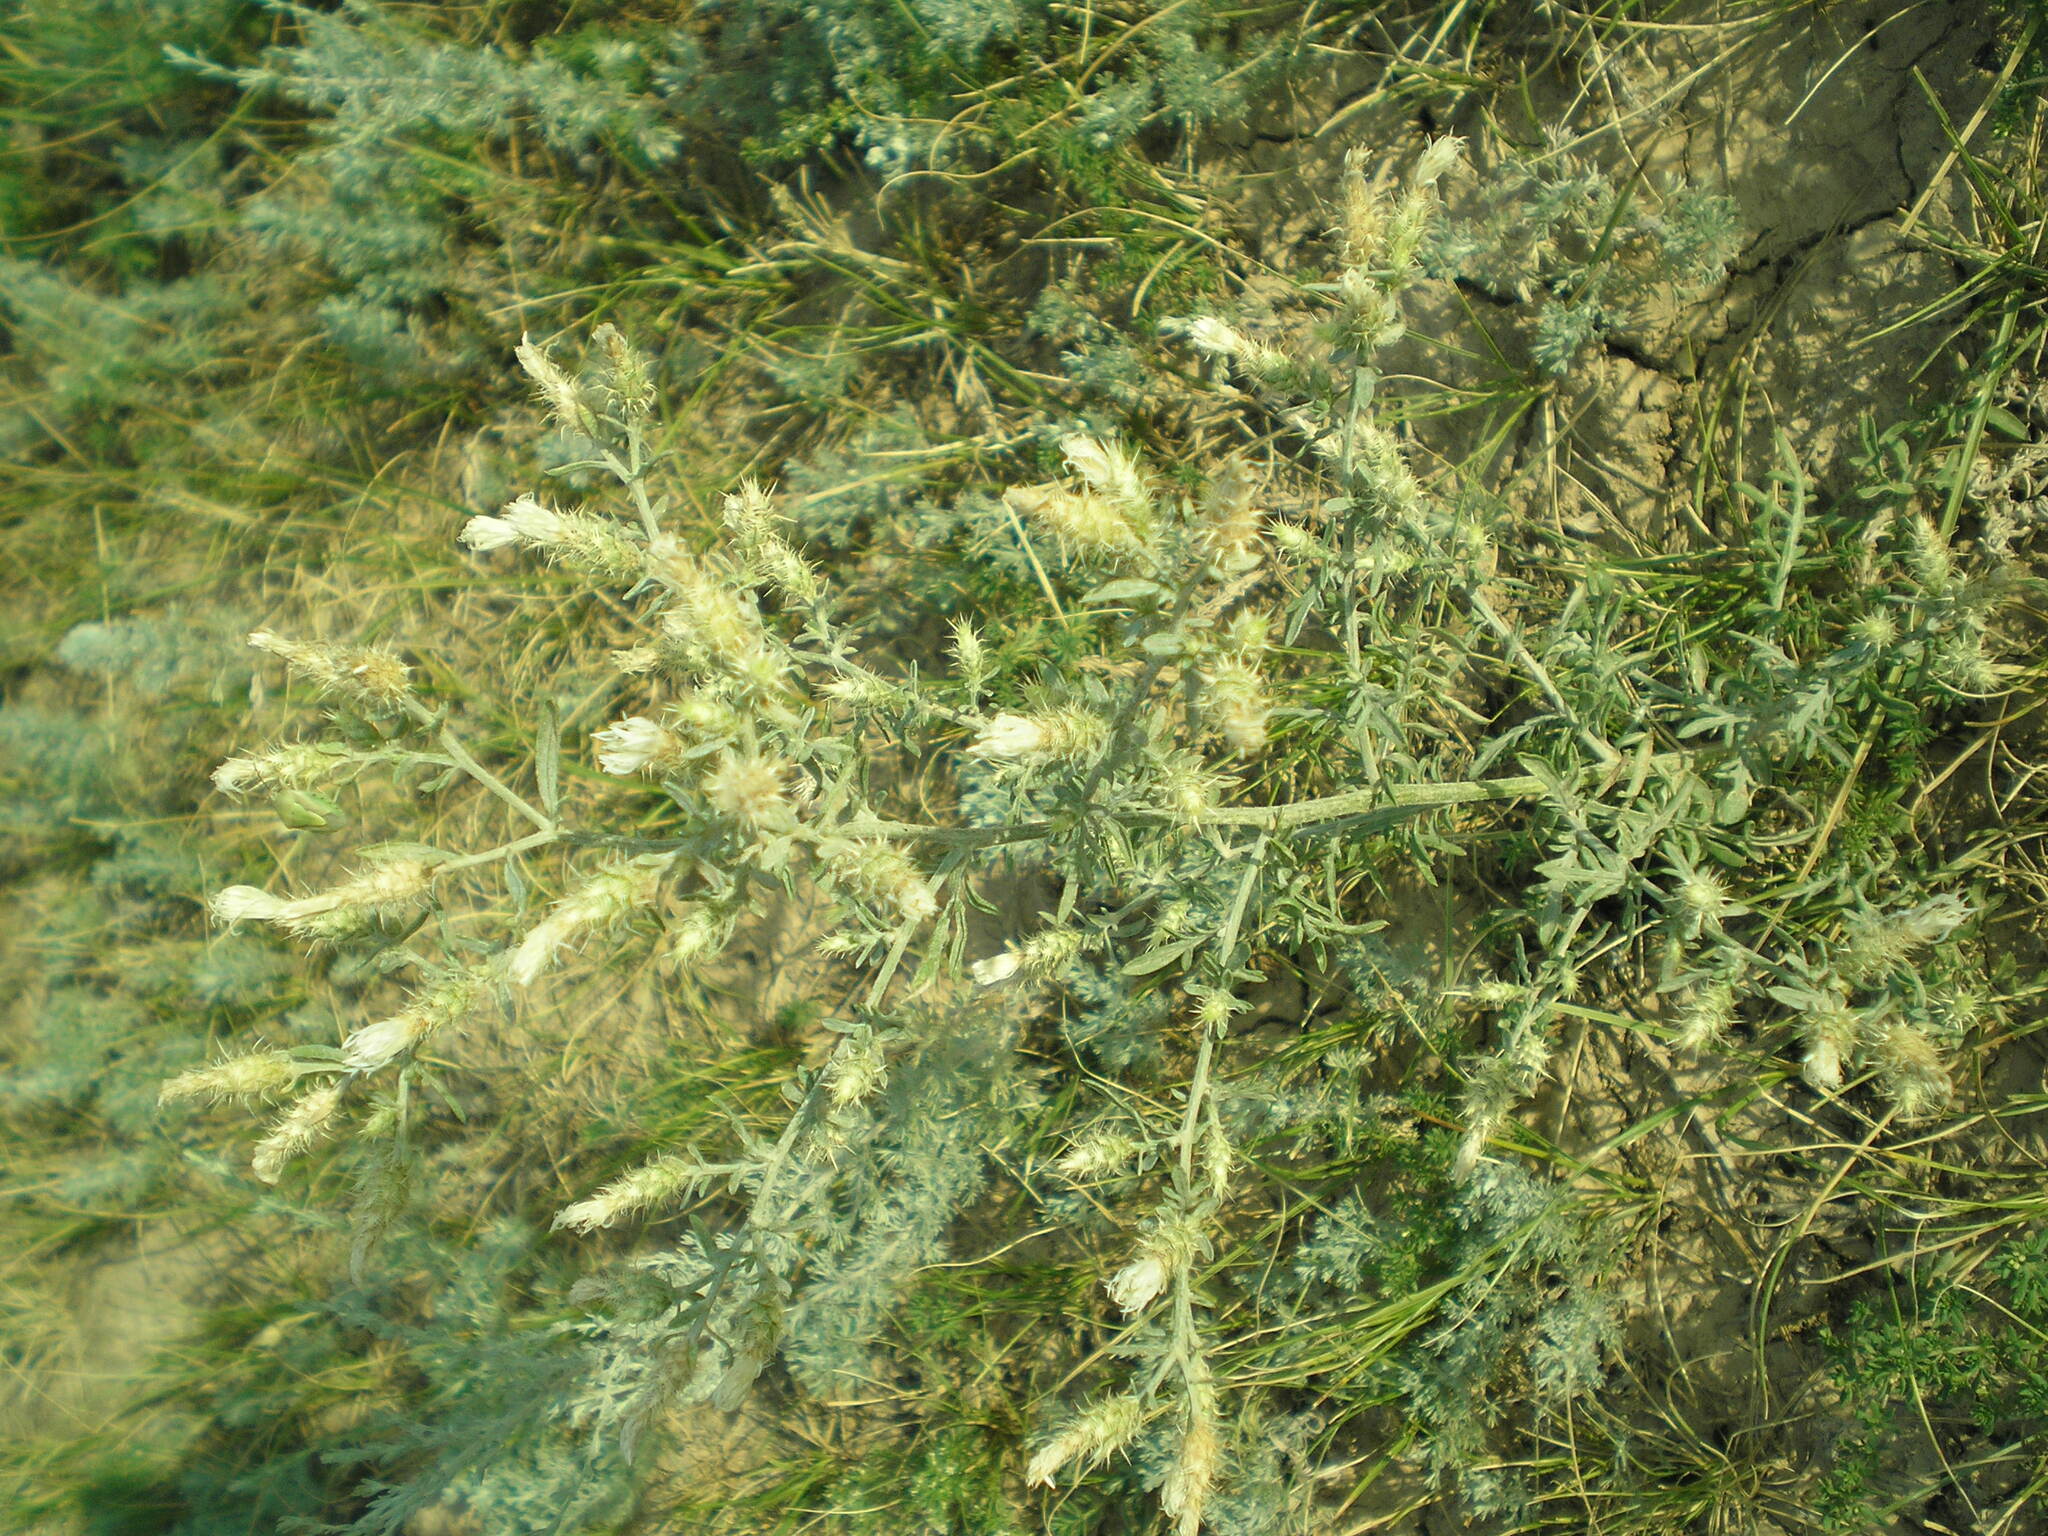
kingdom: Plantae
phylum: Tracheophyta
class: Magnoliopsida
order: Asterales
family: Asteraceae
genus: Centaurea
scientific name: Centaurea diffusa
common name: Diffuse knapweed
